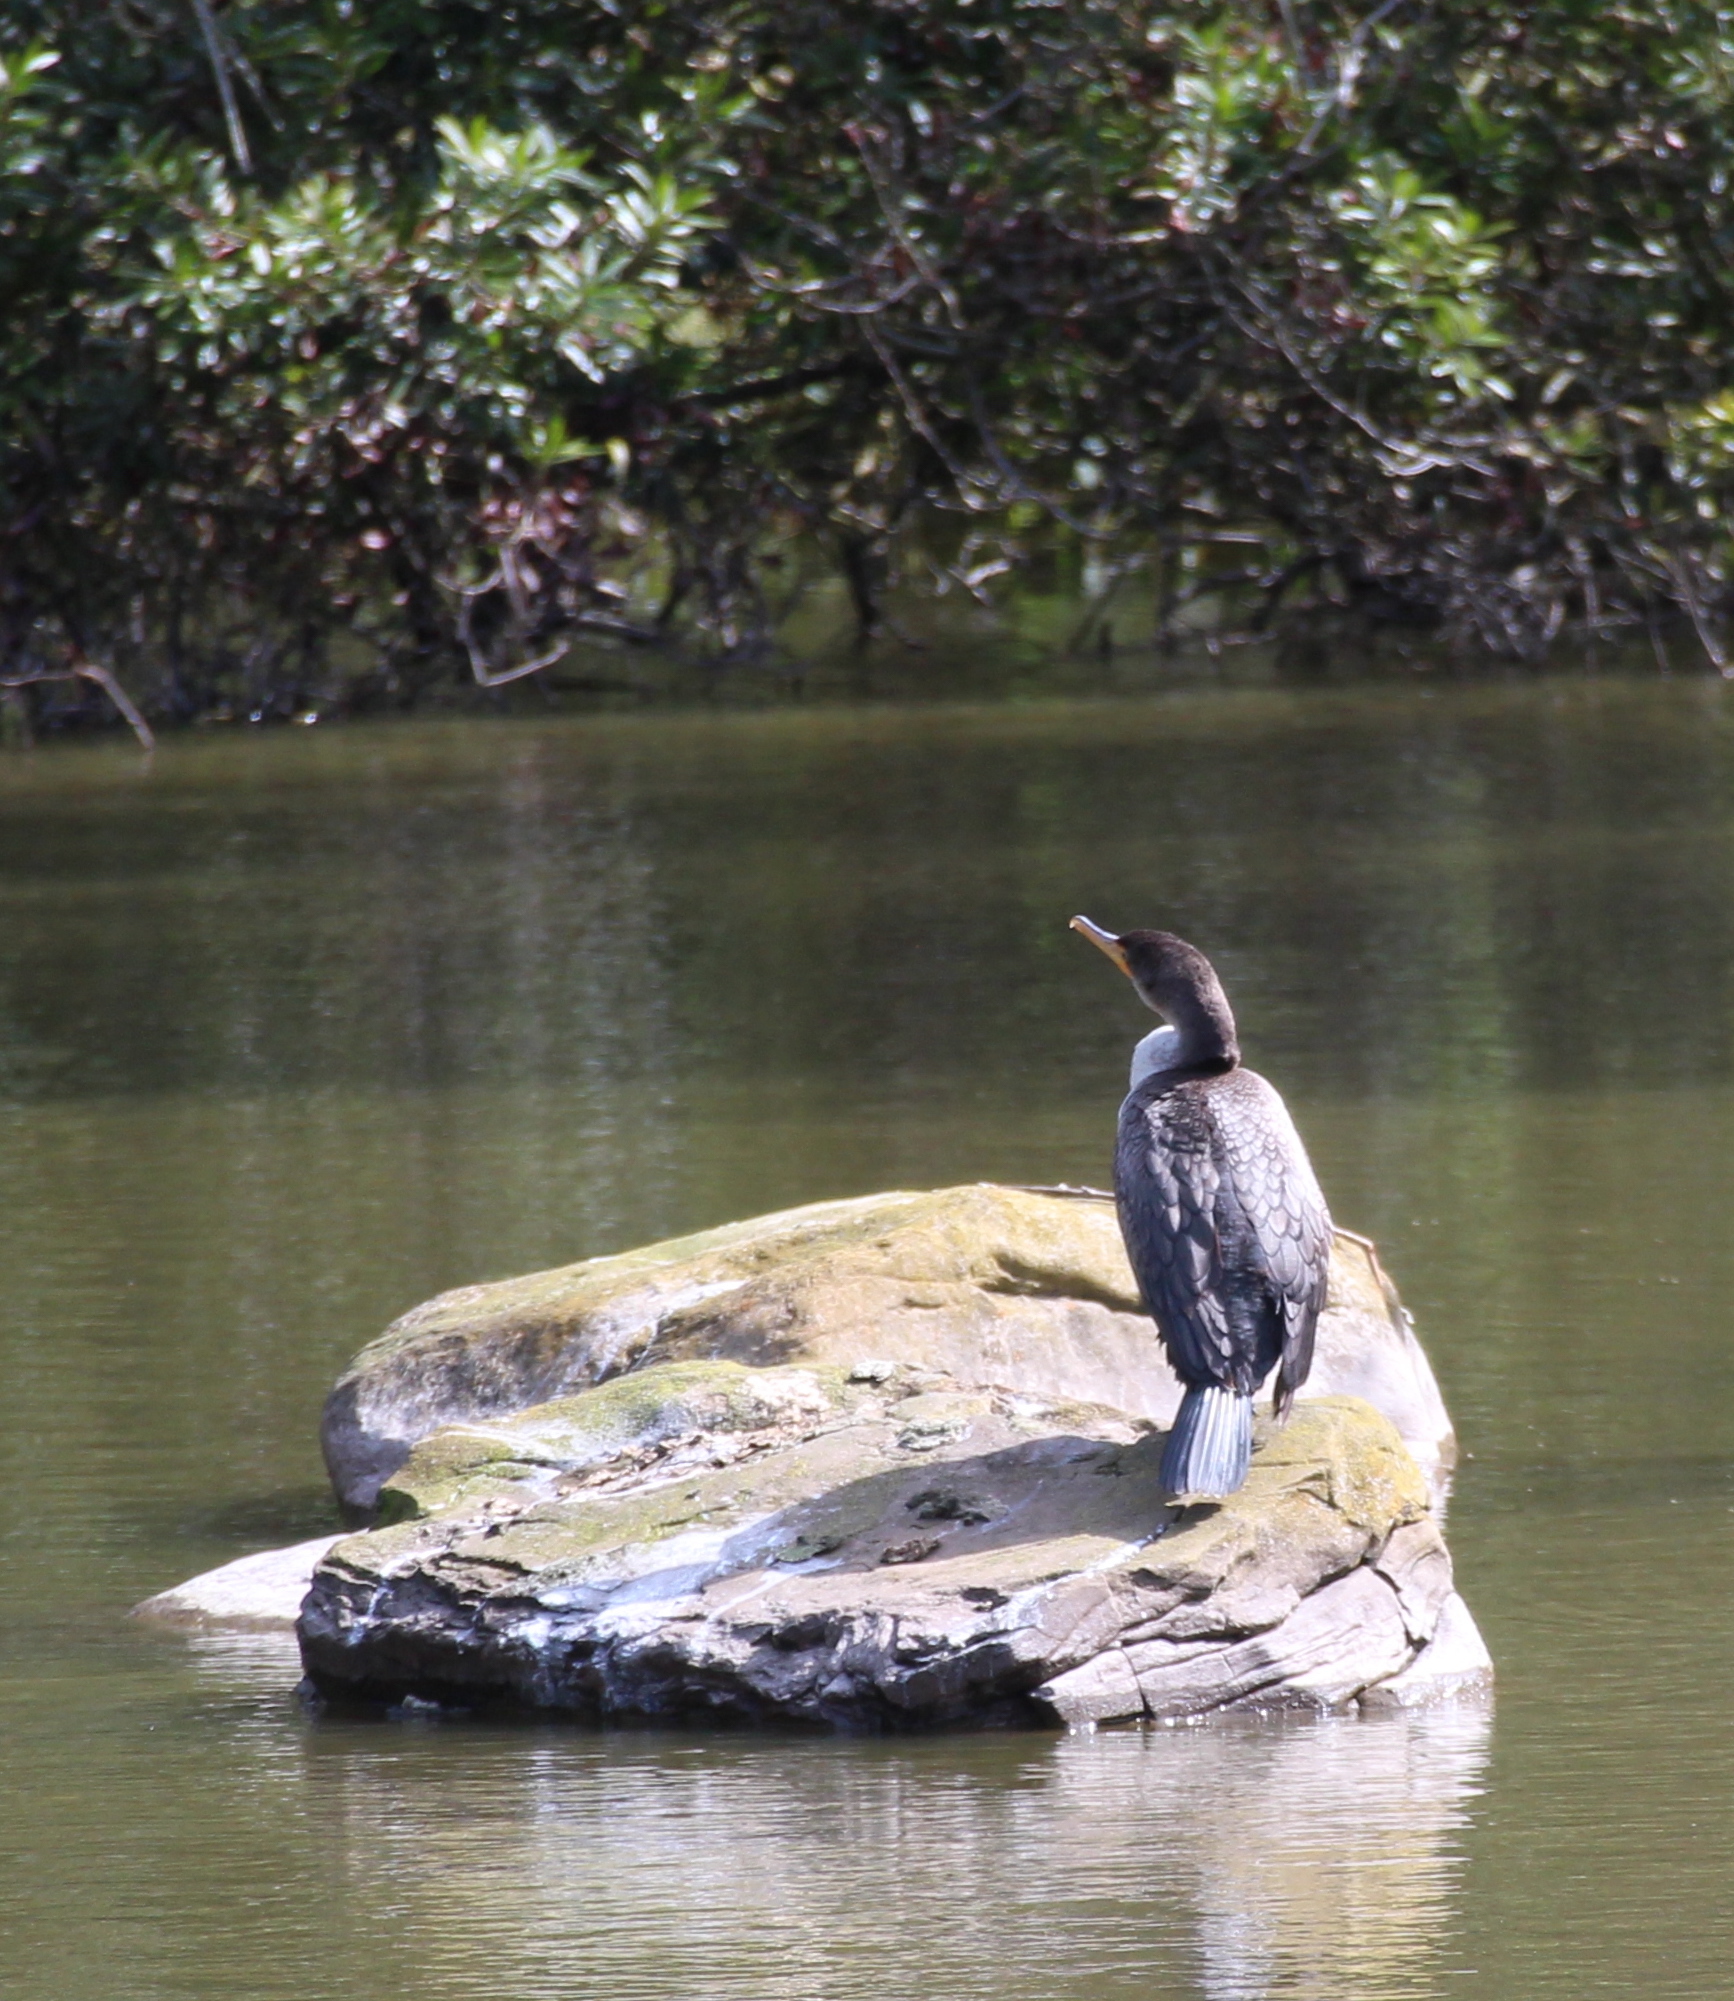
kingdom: Animalia
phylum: Chordata
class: Aves
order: Suliformes
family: Phalacrocoracidae
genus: Phalacrocorax
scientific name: Phalacrocorax auritus
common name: Double-crested cormorant
